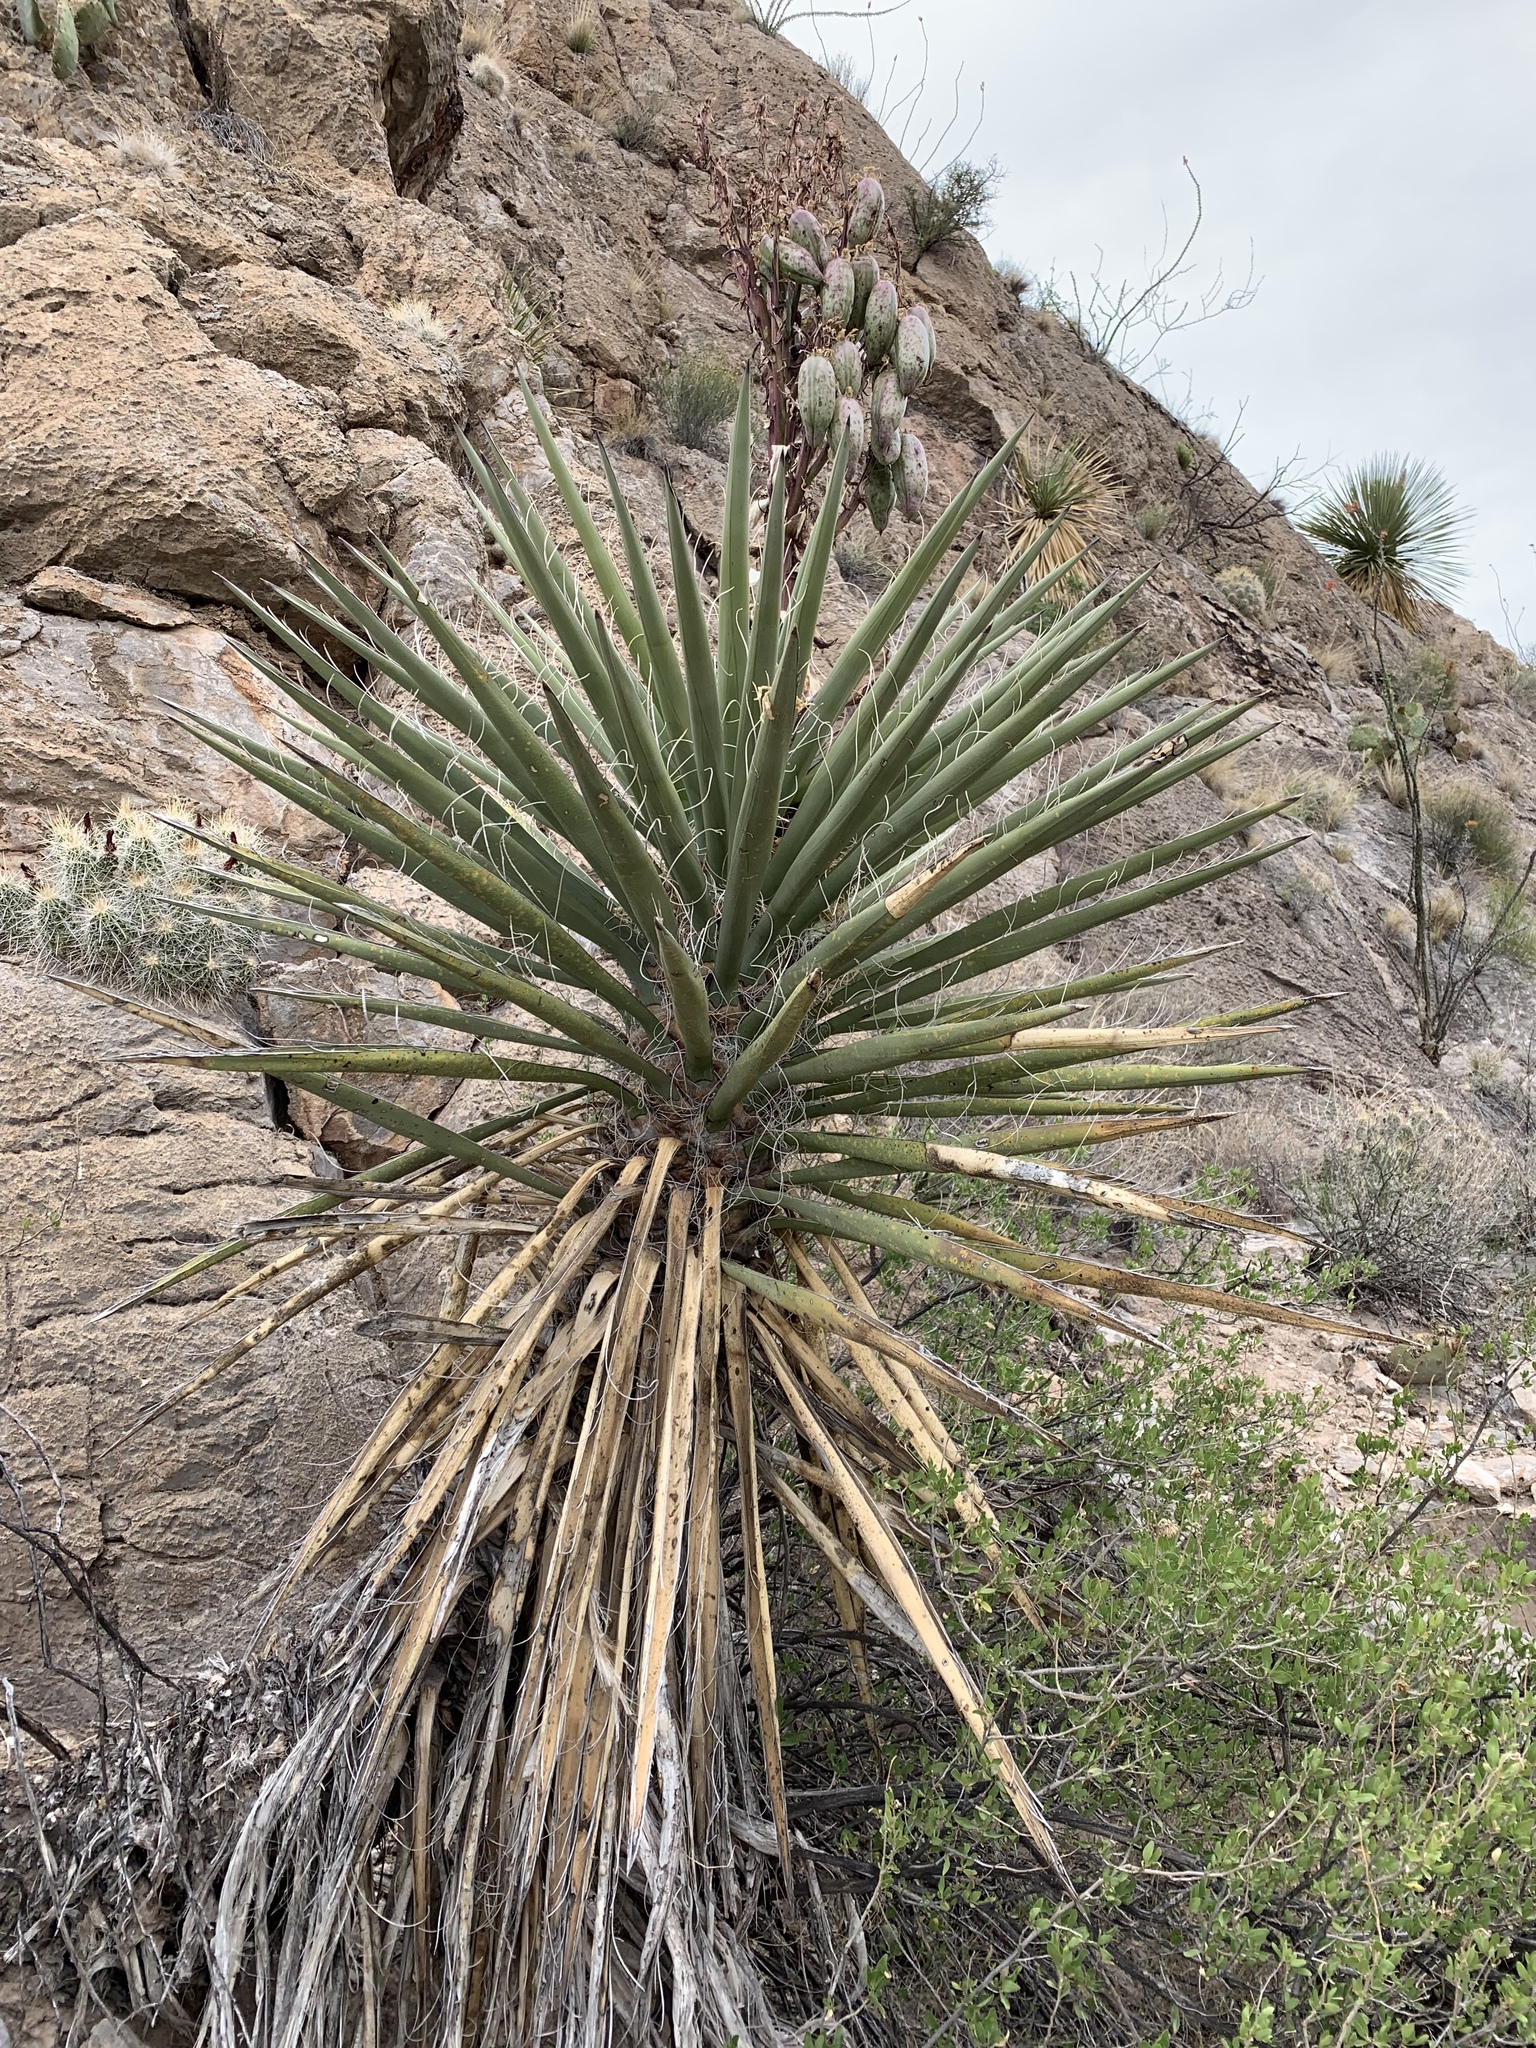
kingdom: Plantae
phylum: Tracheophyta
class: Liliopsida
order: Asparagales
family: Asparagaceae
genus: Yucca
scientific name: Yucca treculiana
